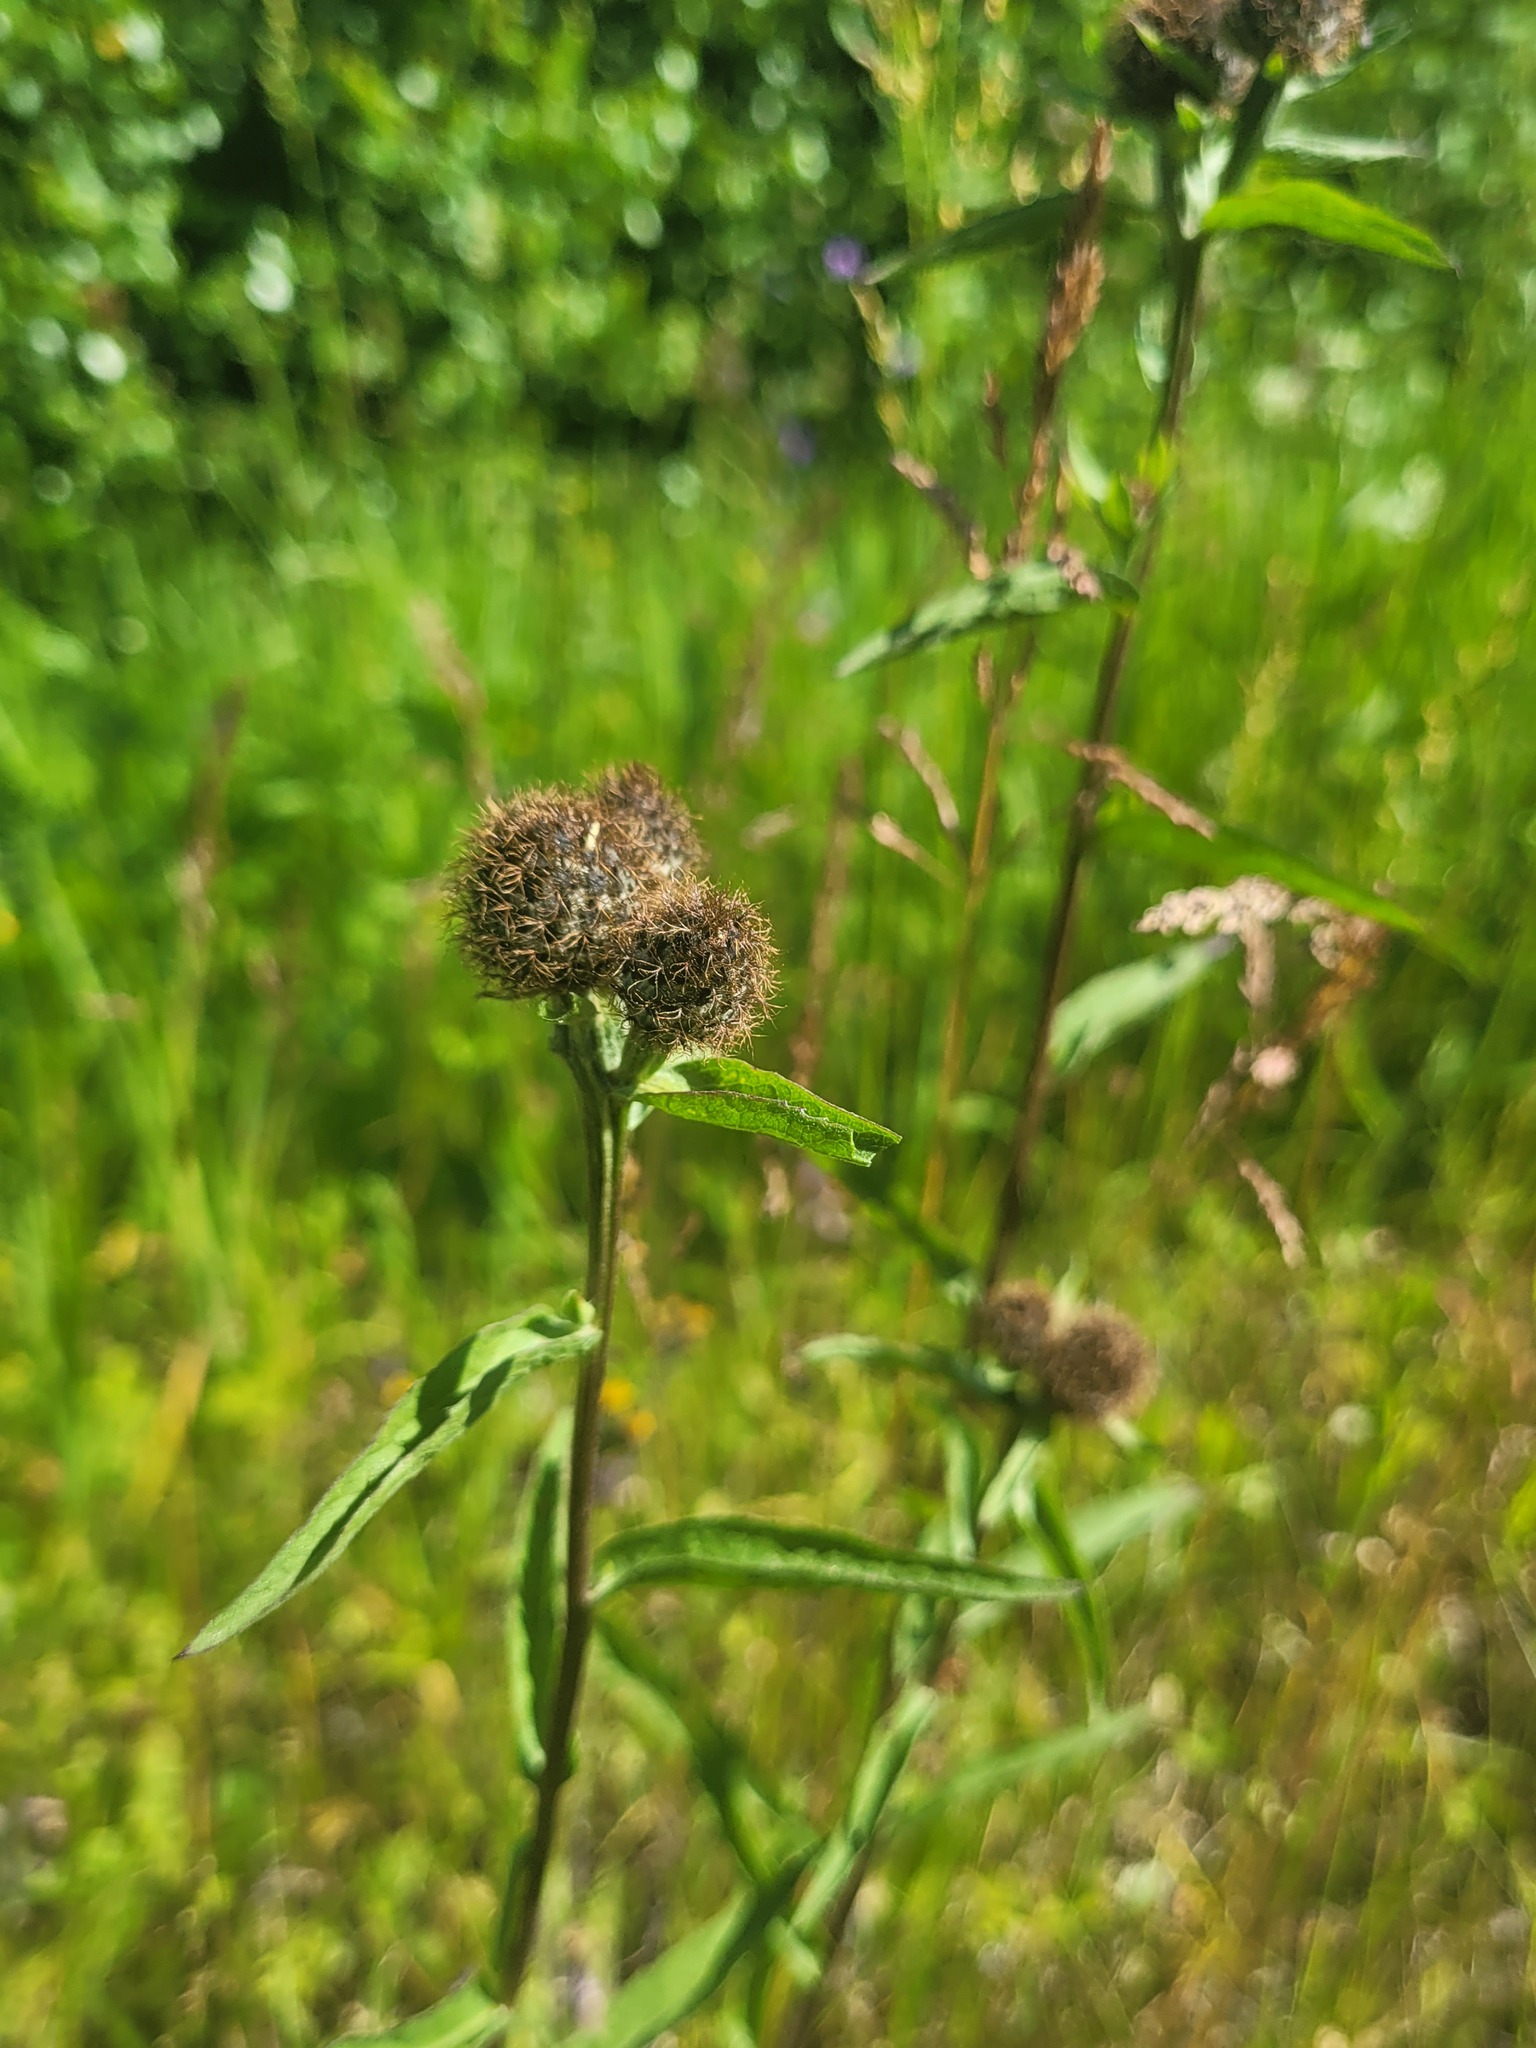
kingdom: Plantae
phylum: Tracheophyta
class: Magnoliopsida
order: Asterales
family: Asteraceae
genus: Centaurea
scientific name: Centaurea pseudophrygia
